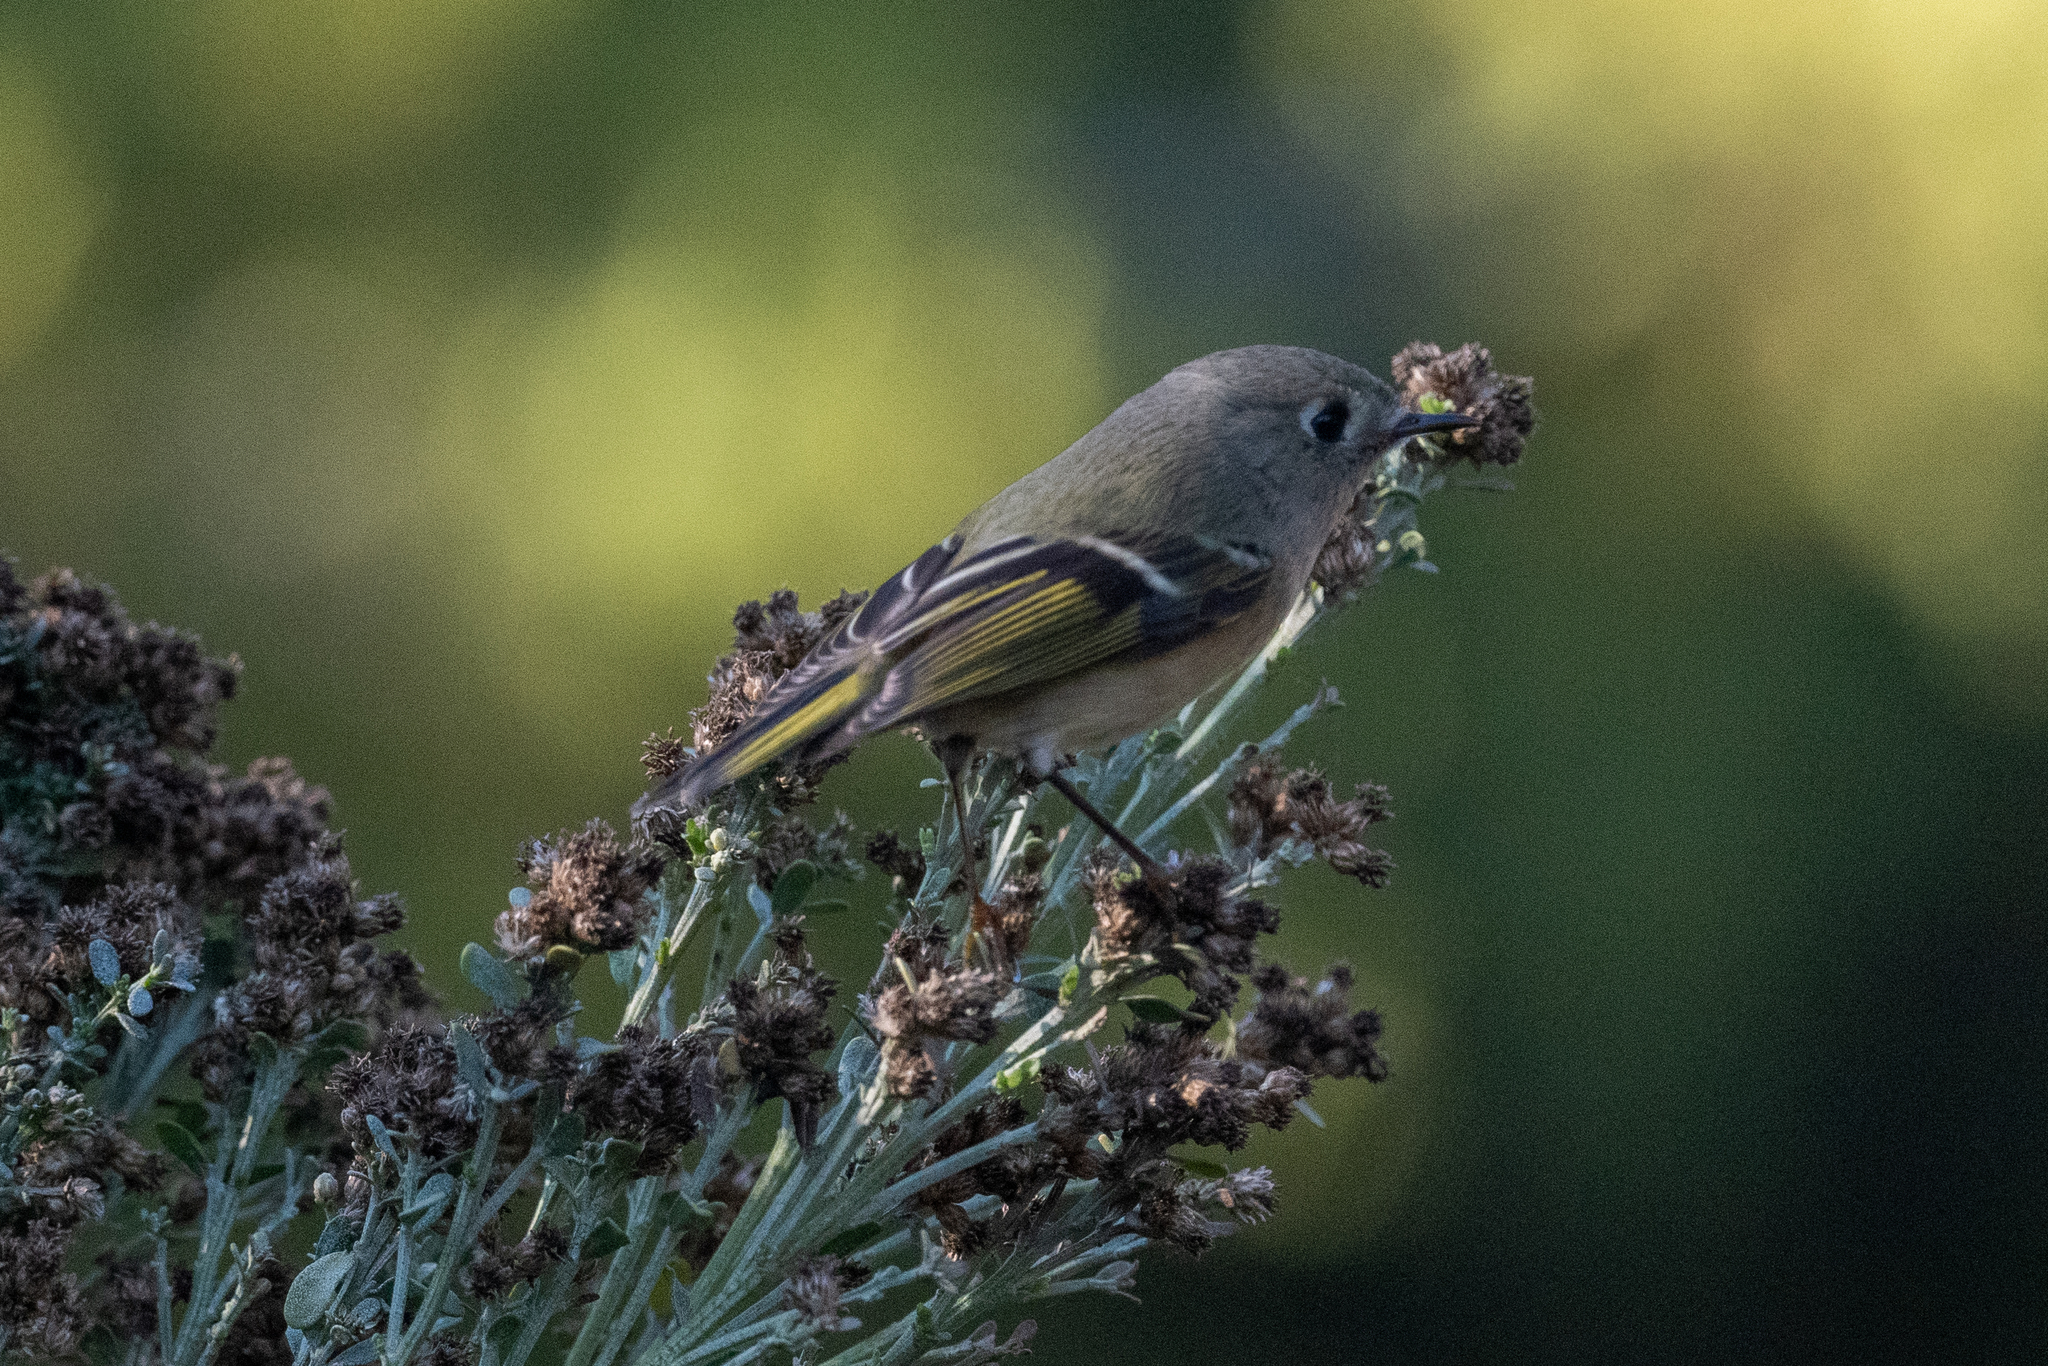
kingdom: Animalia
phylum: Chordata
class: Aves
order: Passeriformes
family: Regulidae
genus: Regulus
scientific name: Regulus calendula
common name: Ruby-crowned kinglet
